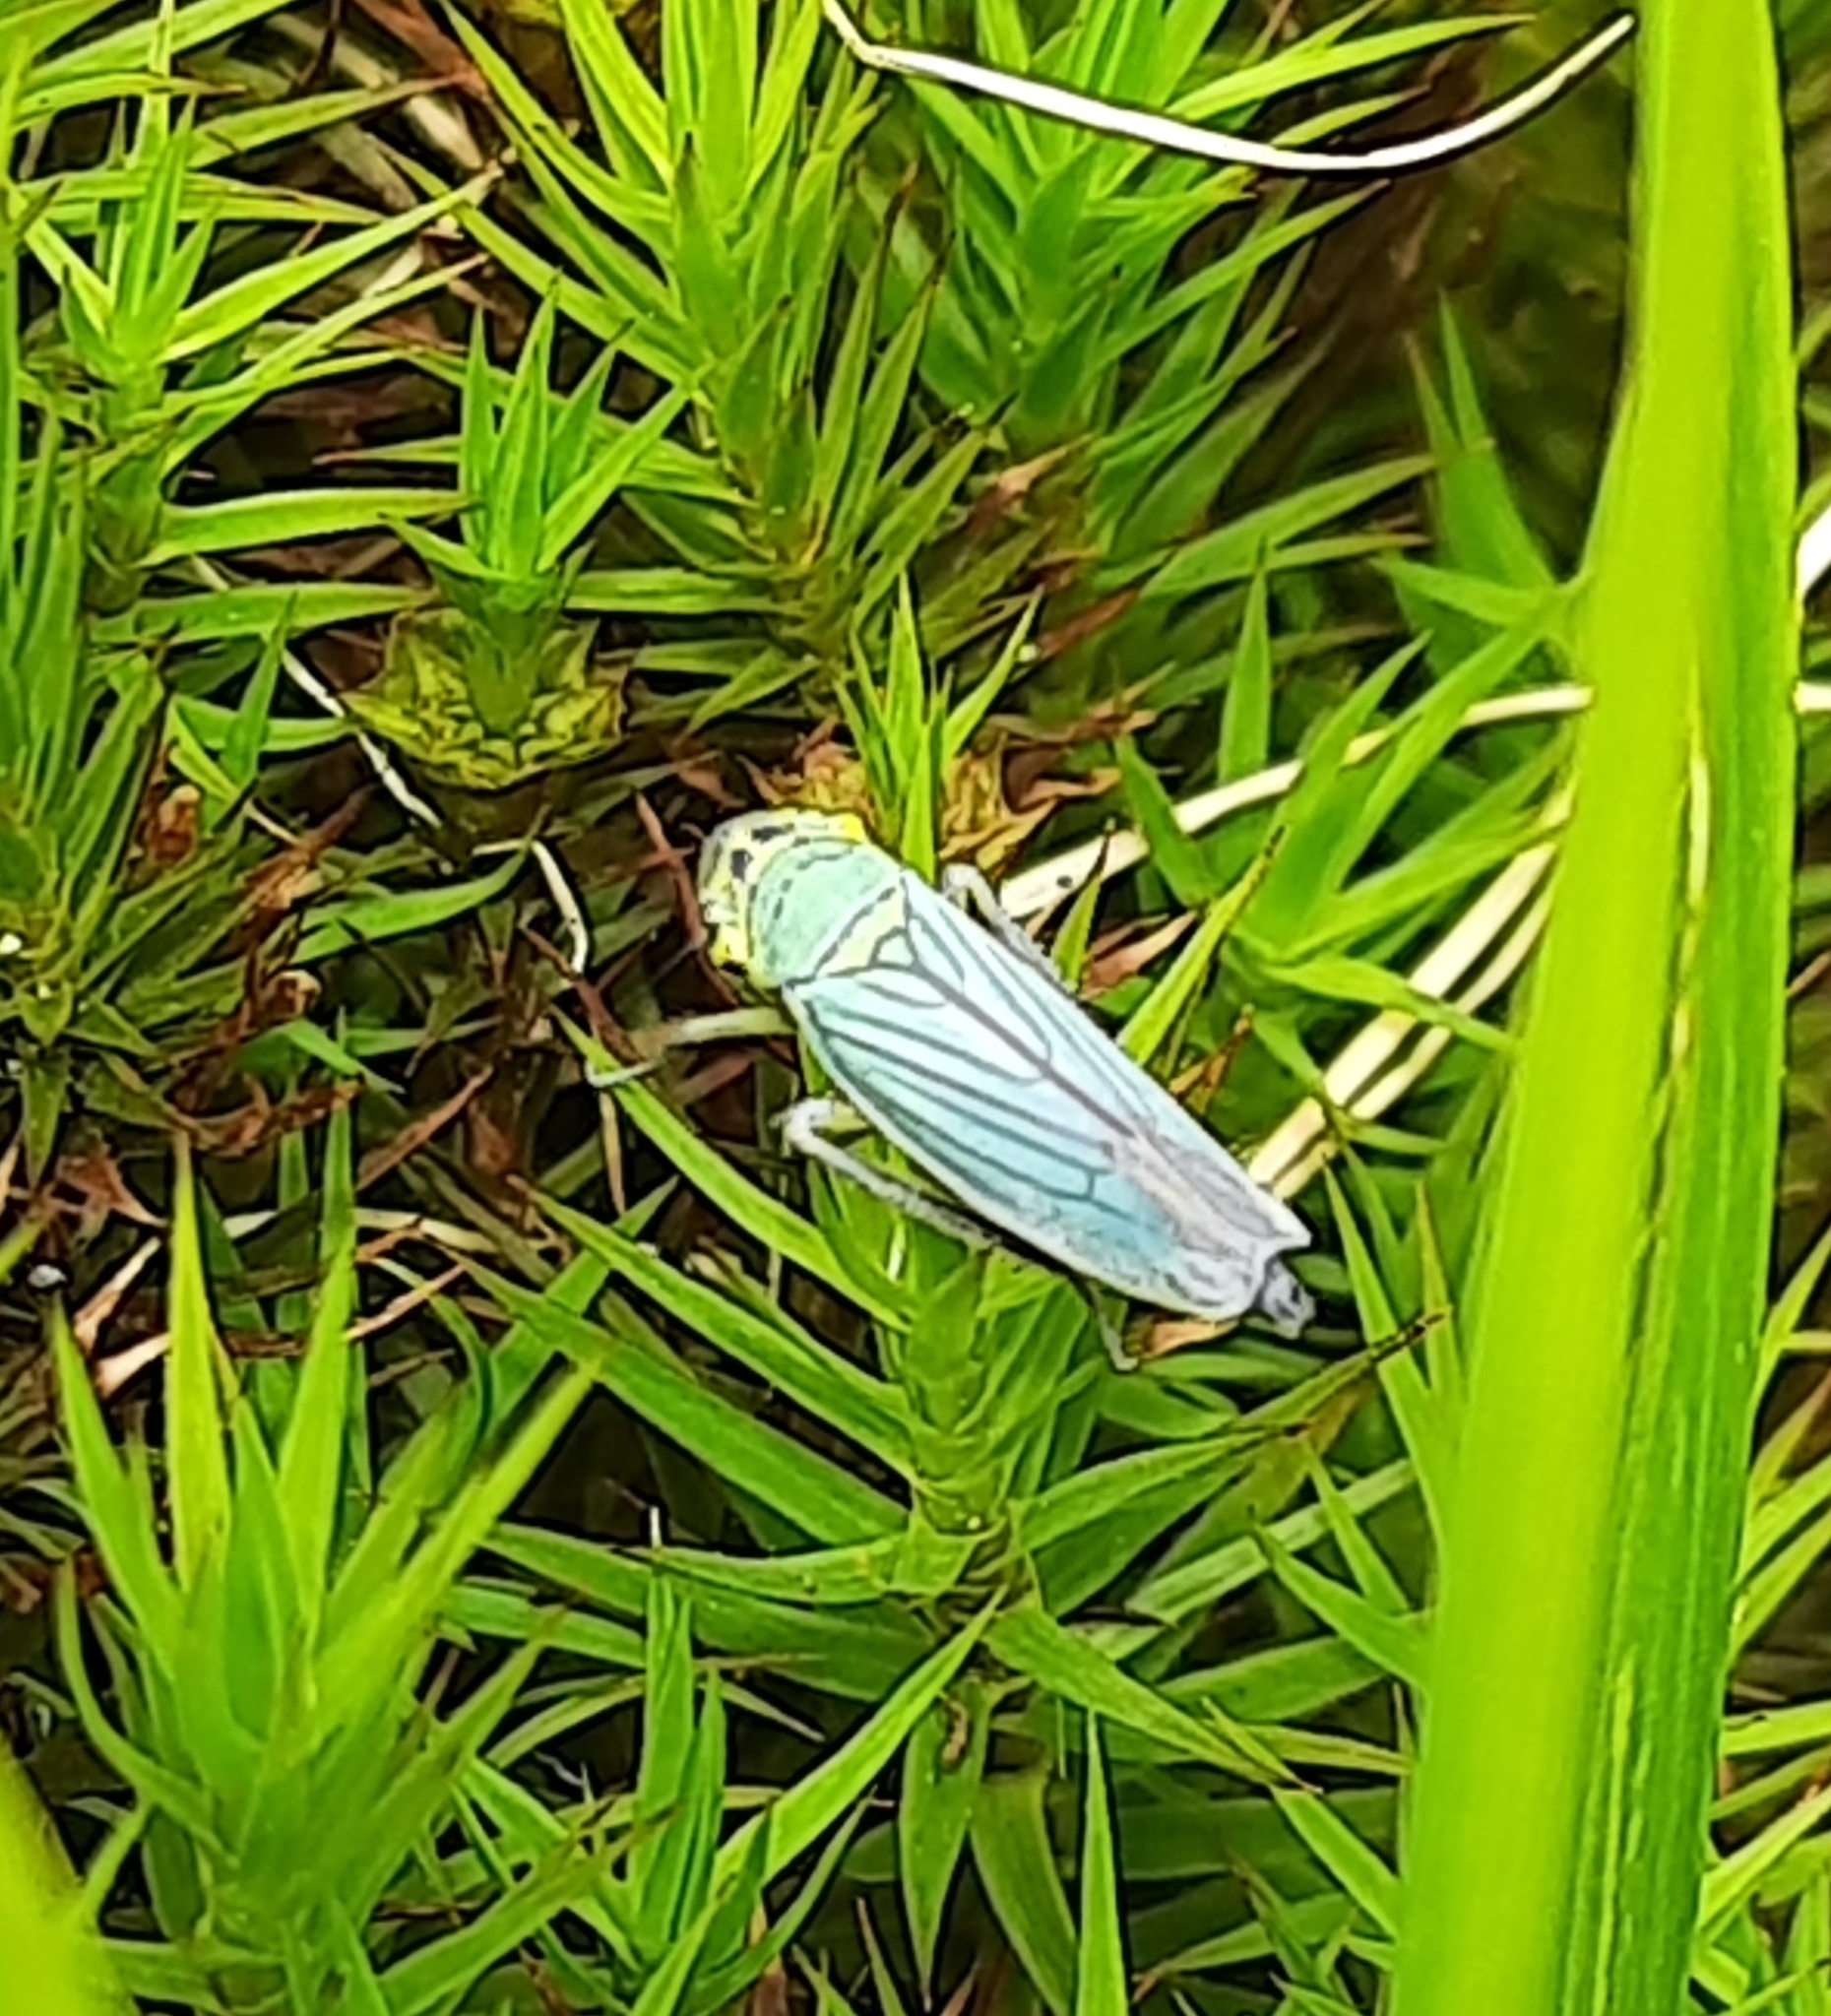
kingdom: Animalia
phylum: Arthropoda
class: Insecta
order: Hemiptera
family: Cicadellidae
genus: Cicadella
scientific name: Cicadella viridis
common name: Leafhopper
